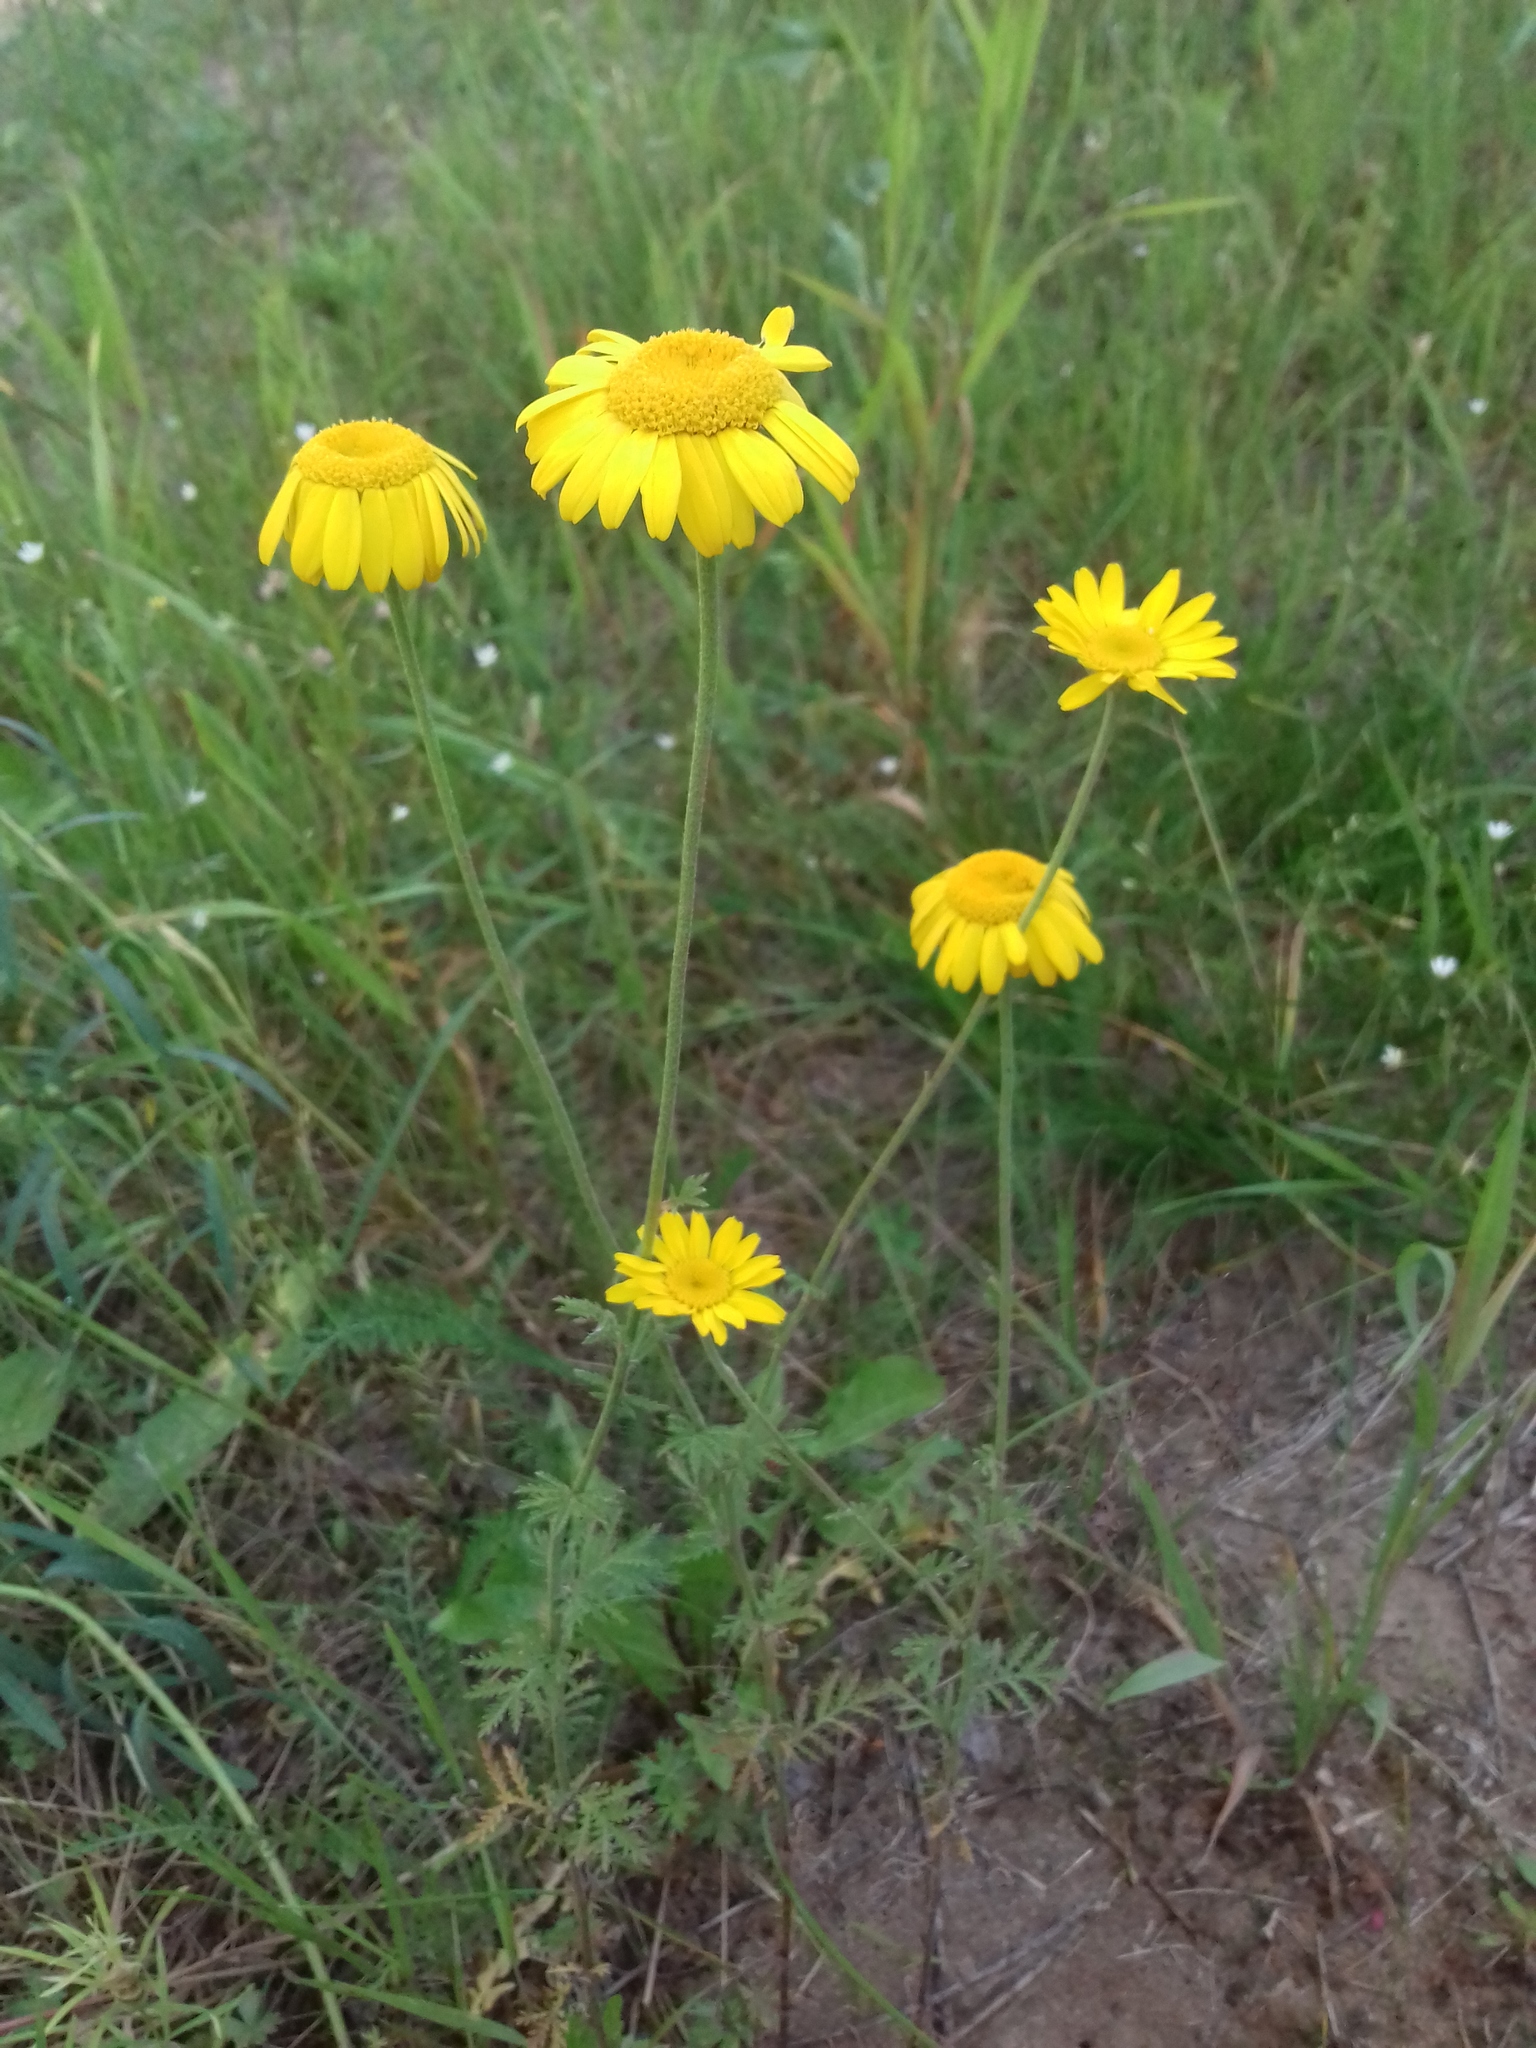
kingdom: Plantae
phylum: Tracheophyta
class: Magnoliopsida
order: Asterales
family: Asteraceae
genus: Cota
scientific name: Cota tinctoria
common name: Golden chamomile
